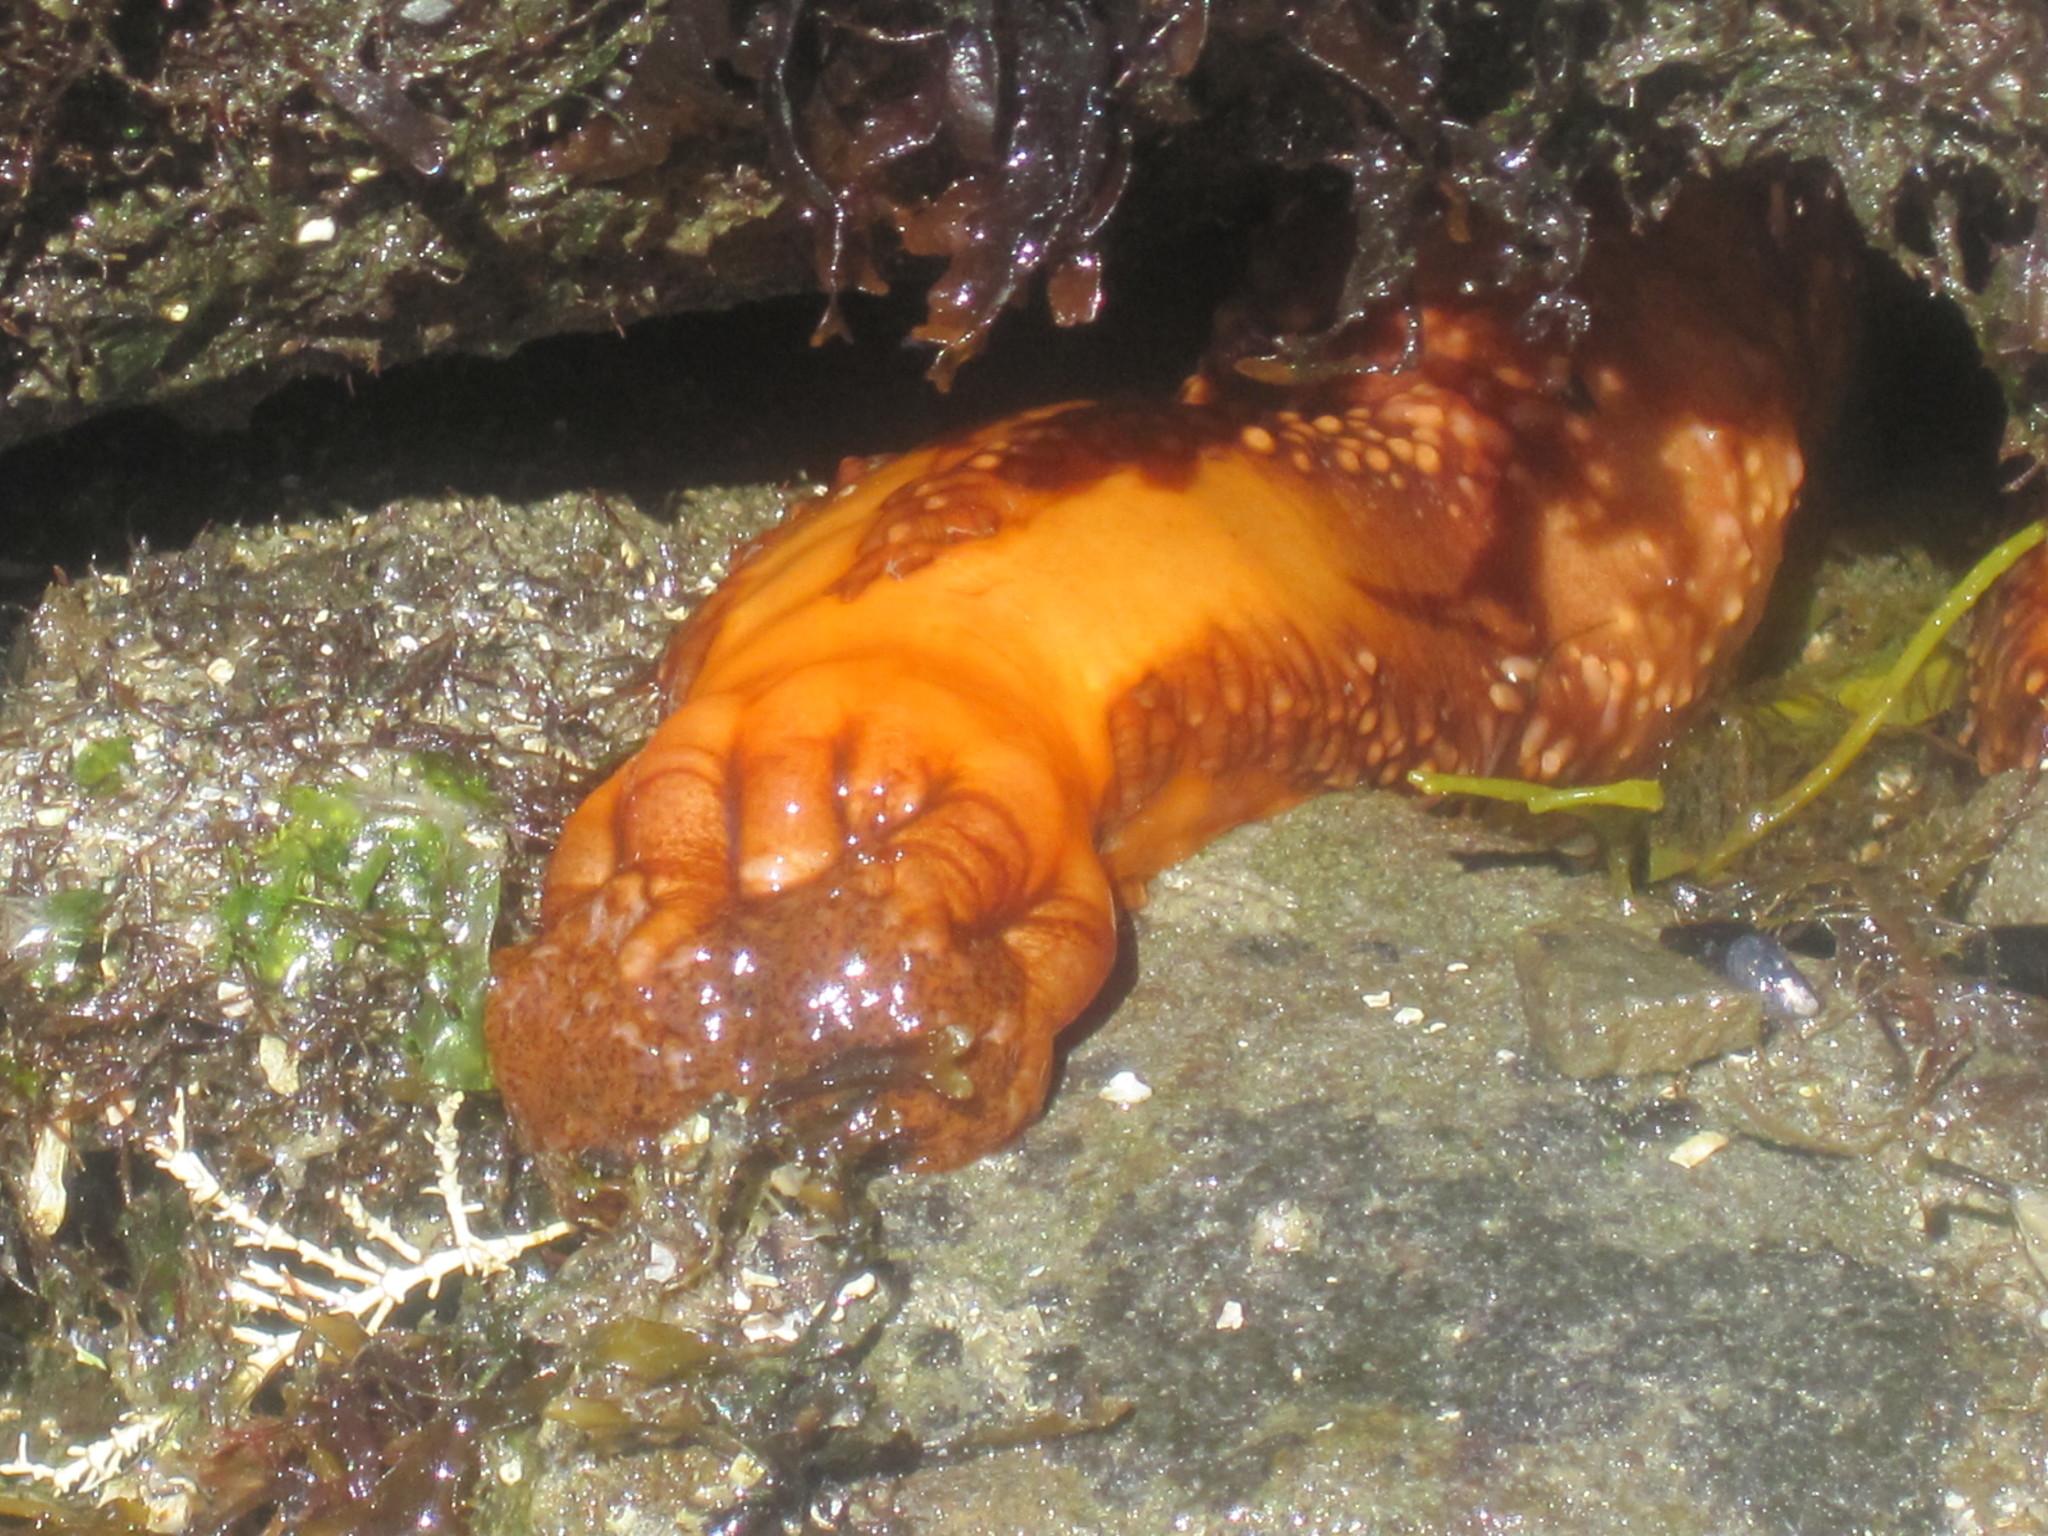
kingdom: Animalia
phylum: Echinodermata
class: Holothuroidea
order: Dendrochirotida
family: Cucumariidae
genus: Cucumaria
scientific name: Cucumaria miniata
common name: Orange sea cucumber
